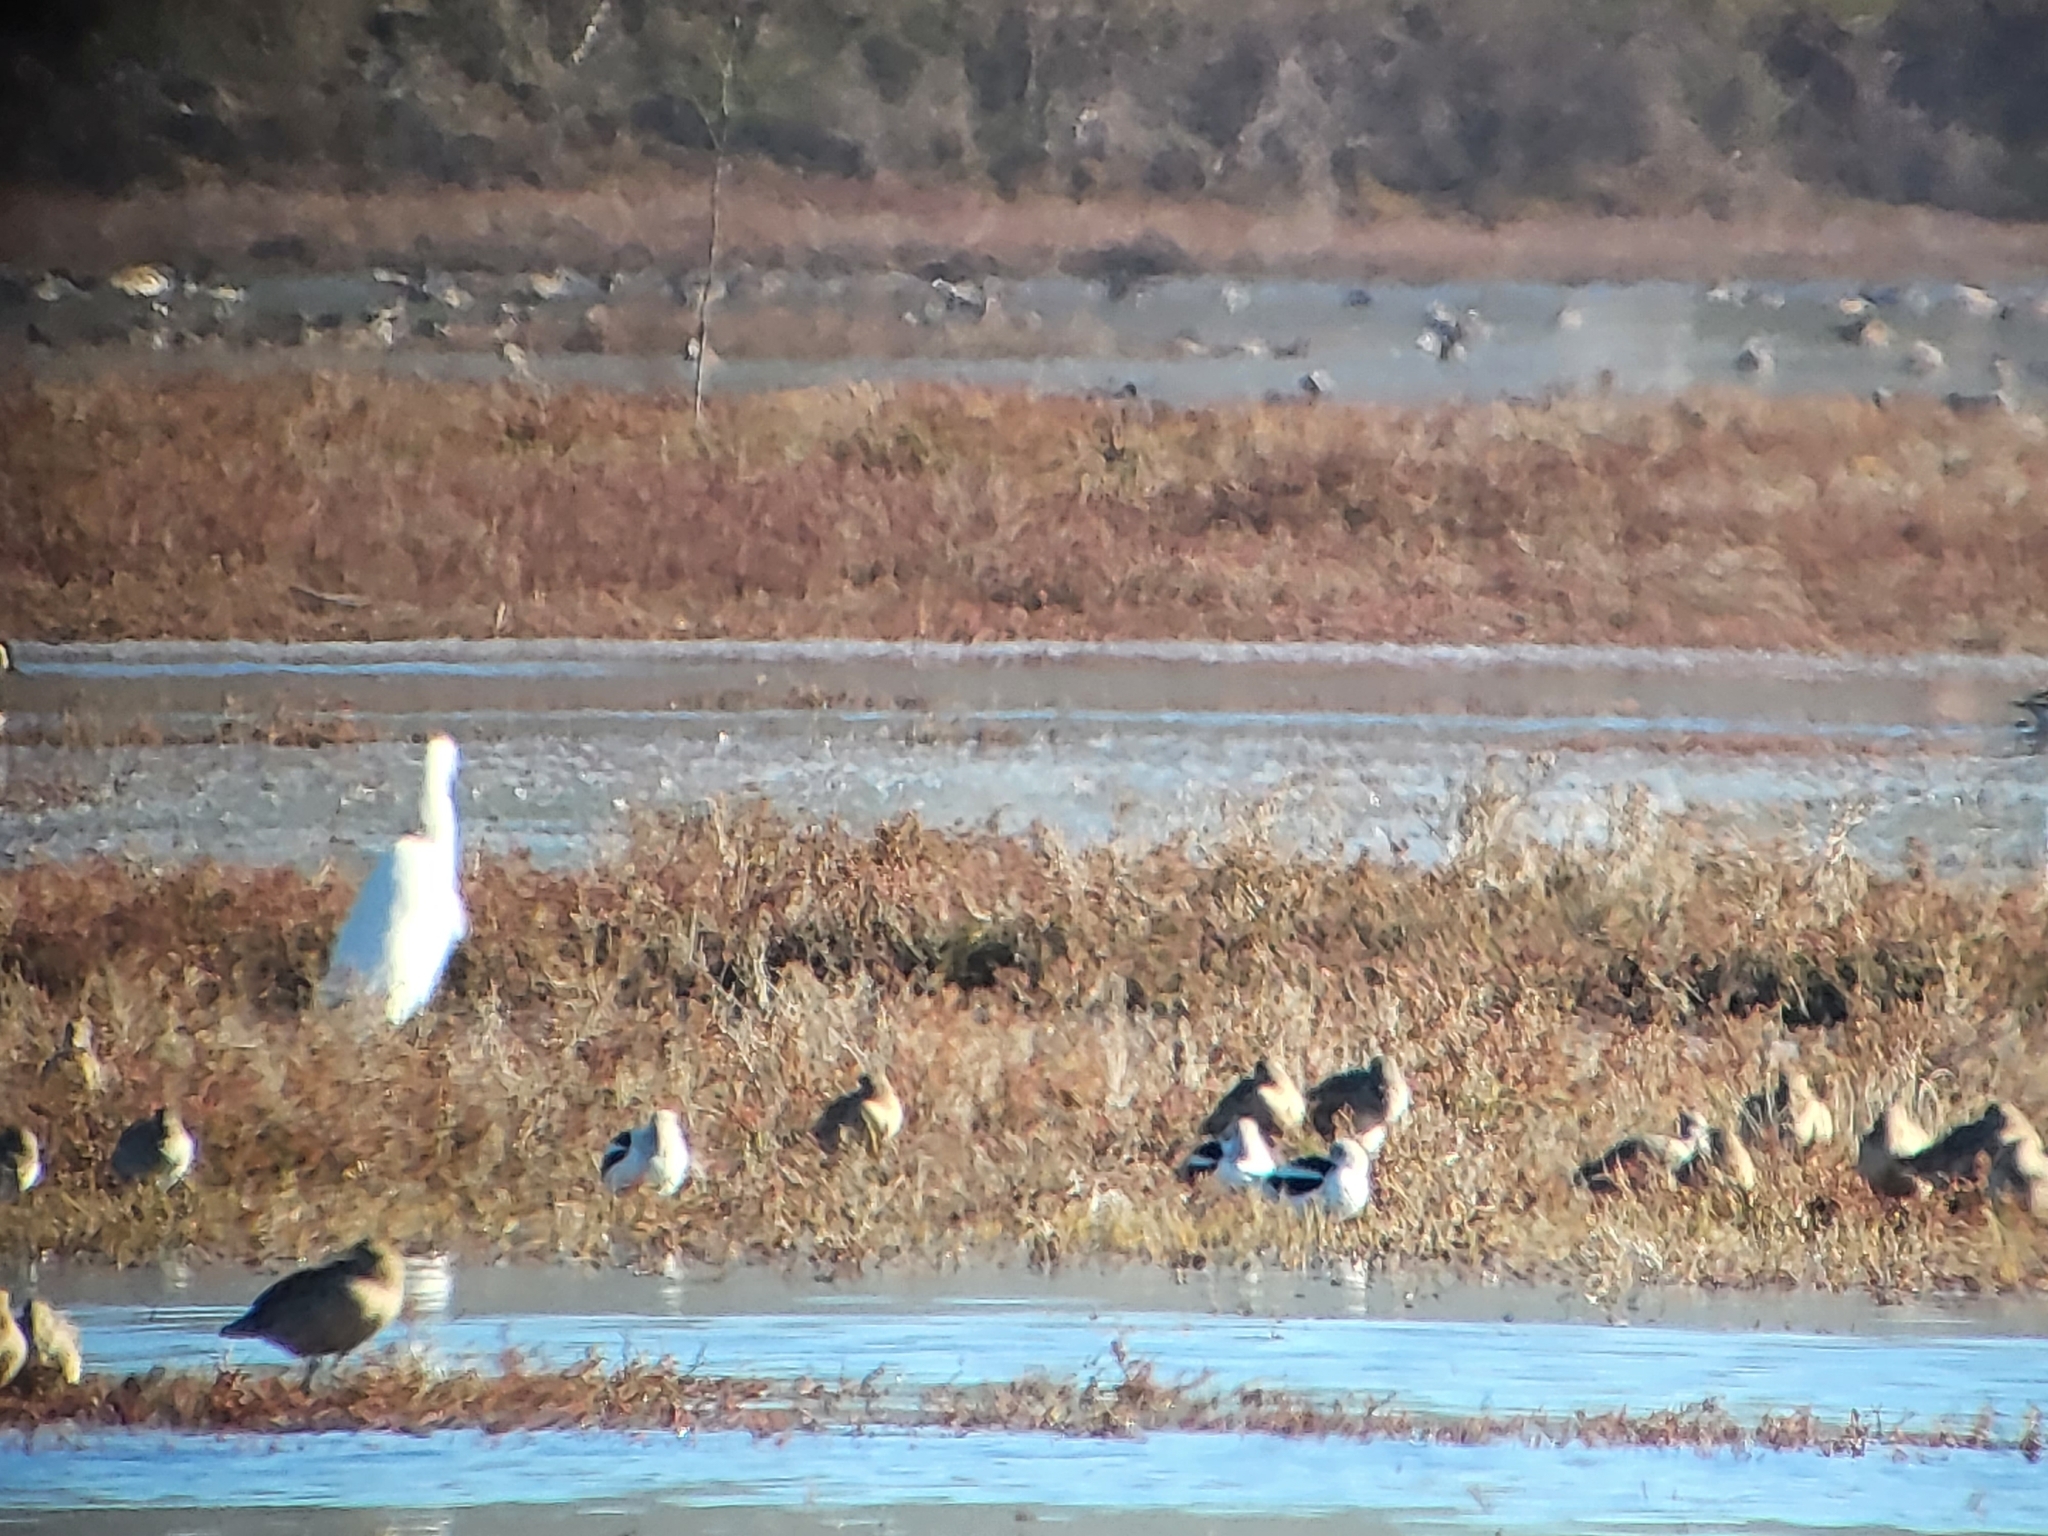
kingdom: Animalia
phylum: Chordata
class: Aves
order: Charadriiformes
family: Recurvirostridae
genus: Recurvirostra
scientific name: Recurvirostra americana
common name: American avocet
